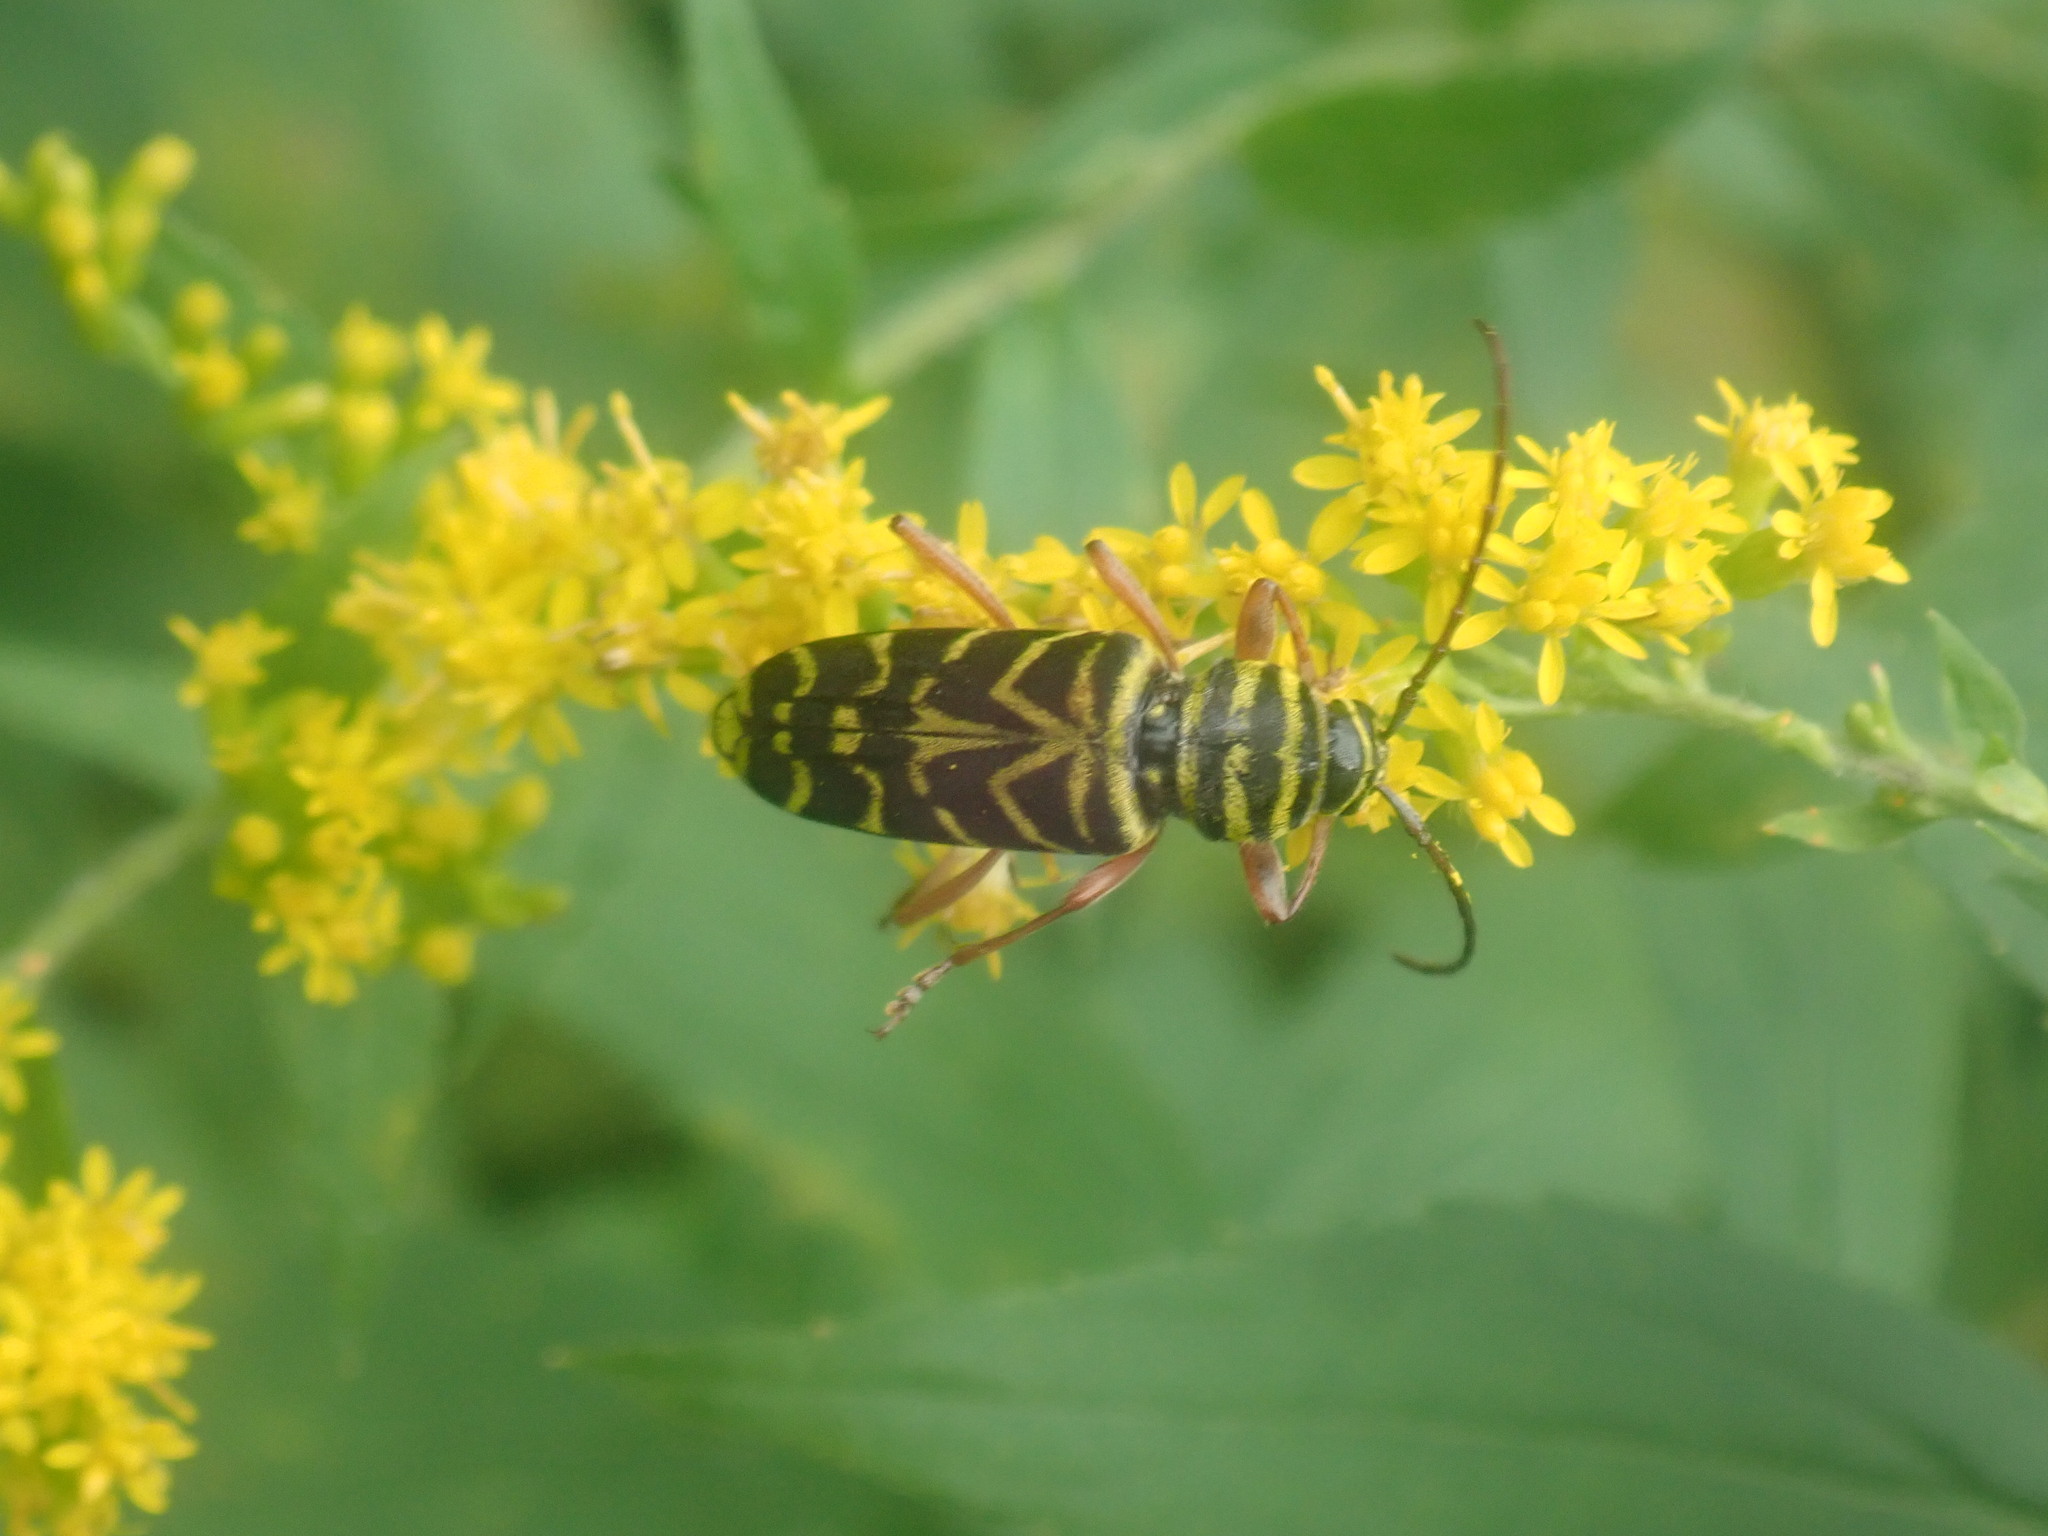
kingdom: Animalia
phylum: Arthropoda
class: Insecta
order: Coleoptera
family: Cerambycidae
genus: Megacyllene
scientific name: Megacyllene robiniae
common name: Locust borer
